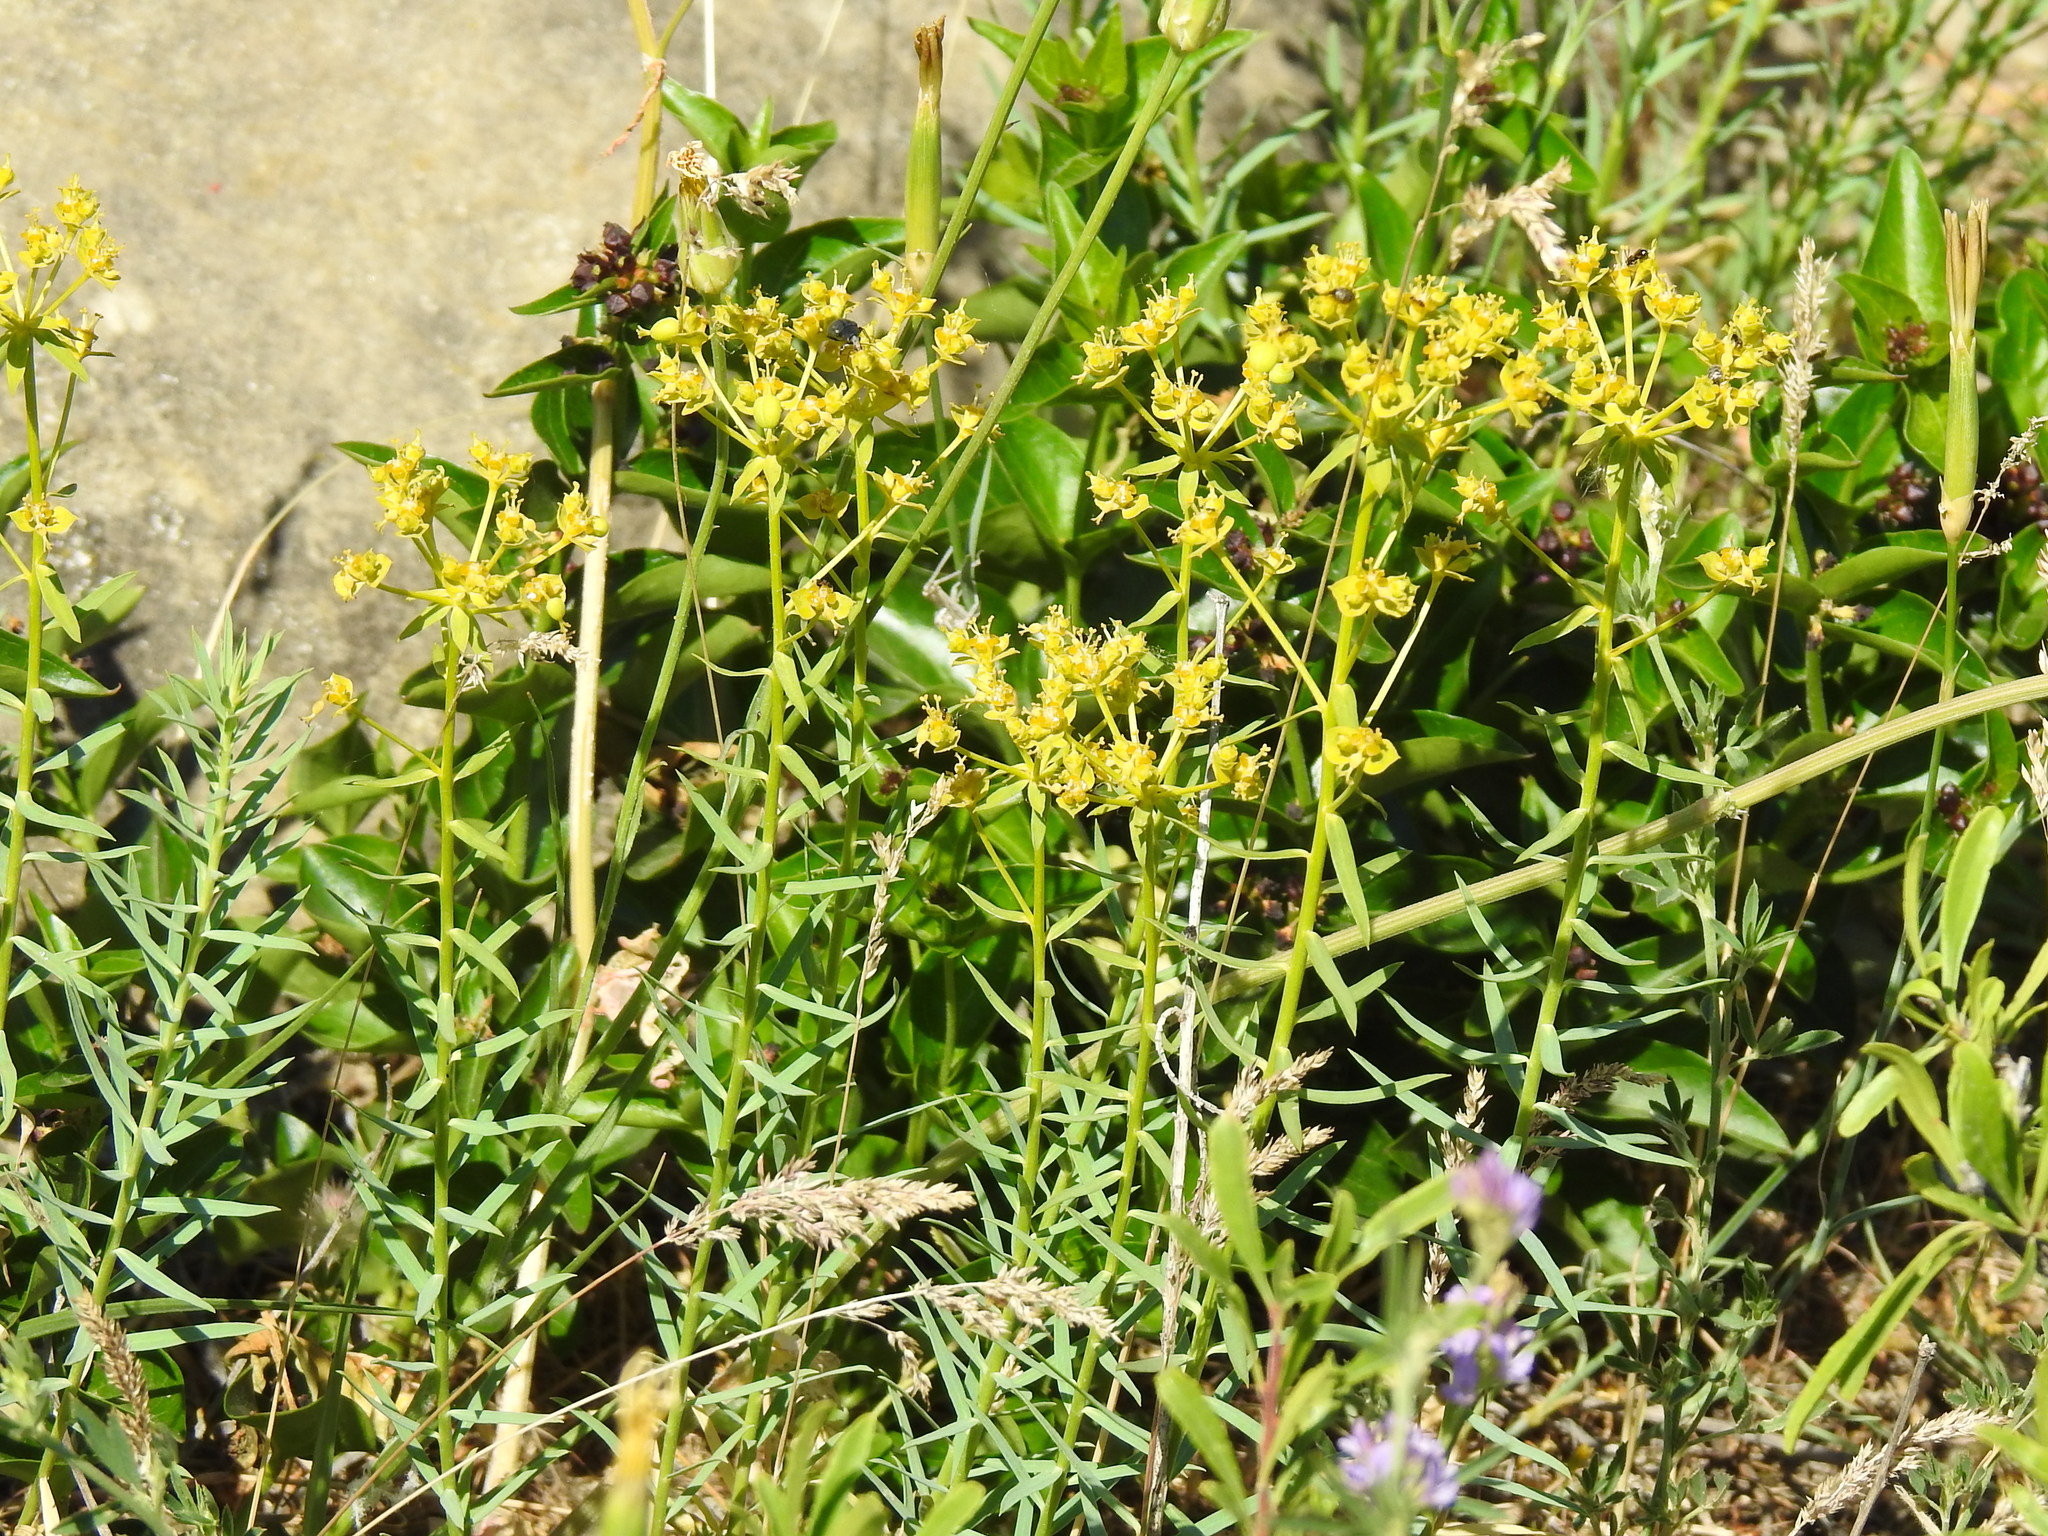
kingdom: Plantae
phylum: Tracheophyta
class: Magnoliopsida
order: Malpighiales
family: Euphorbiaceae
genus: Euphorbia
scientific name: Euphorbia seguieriana
